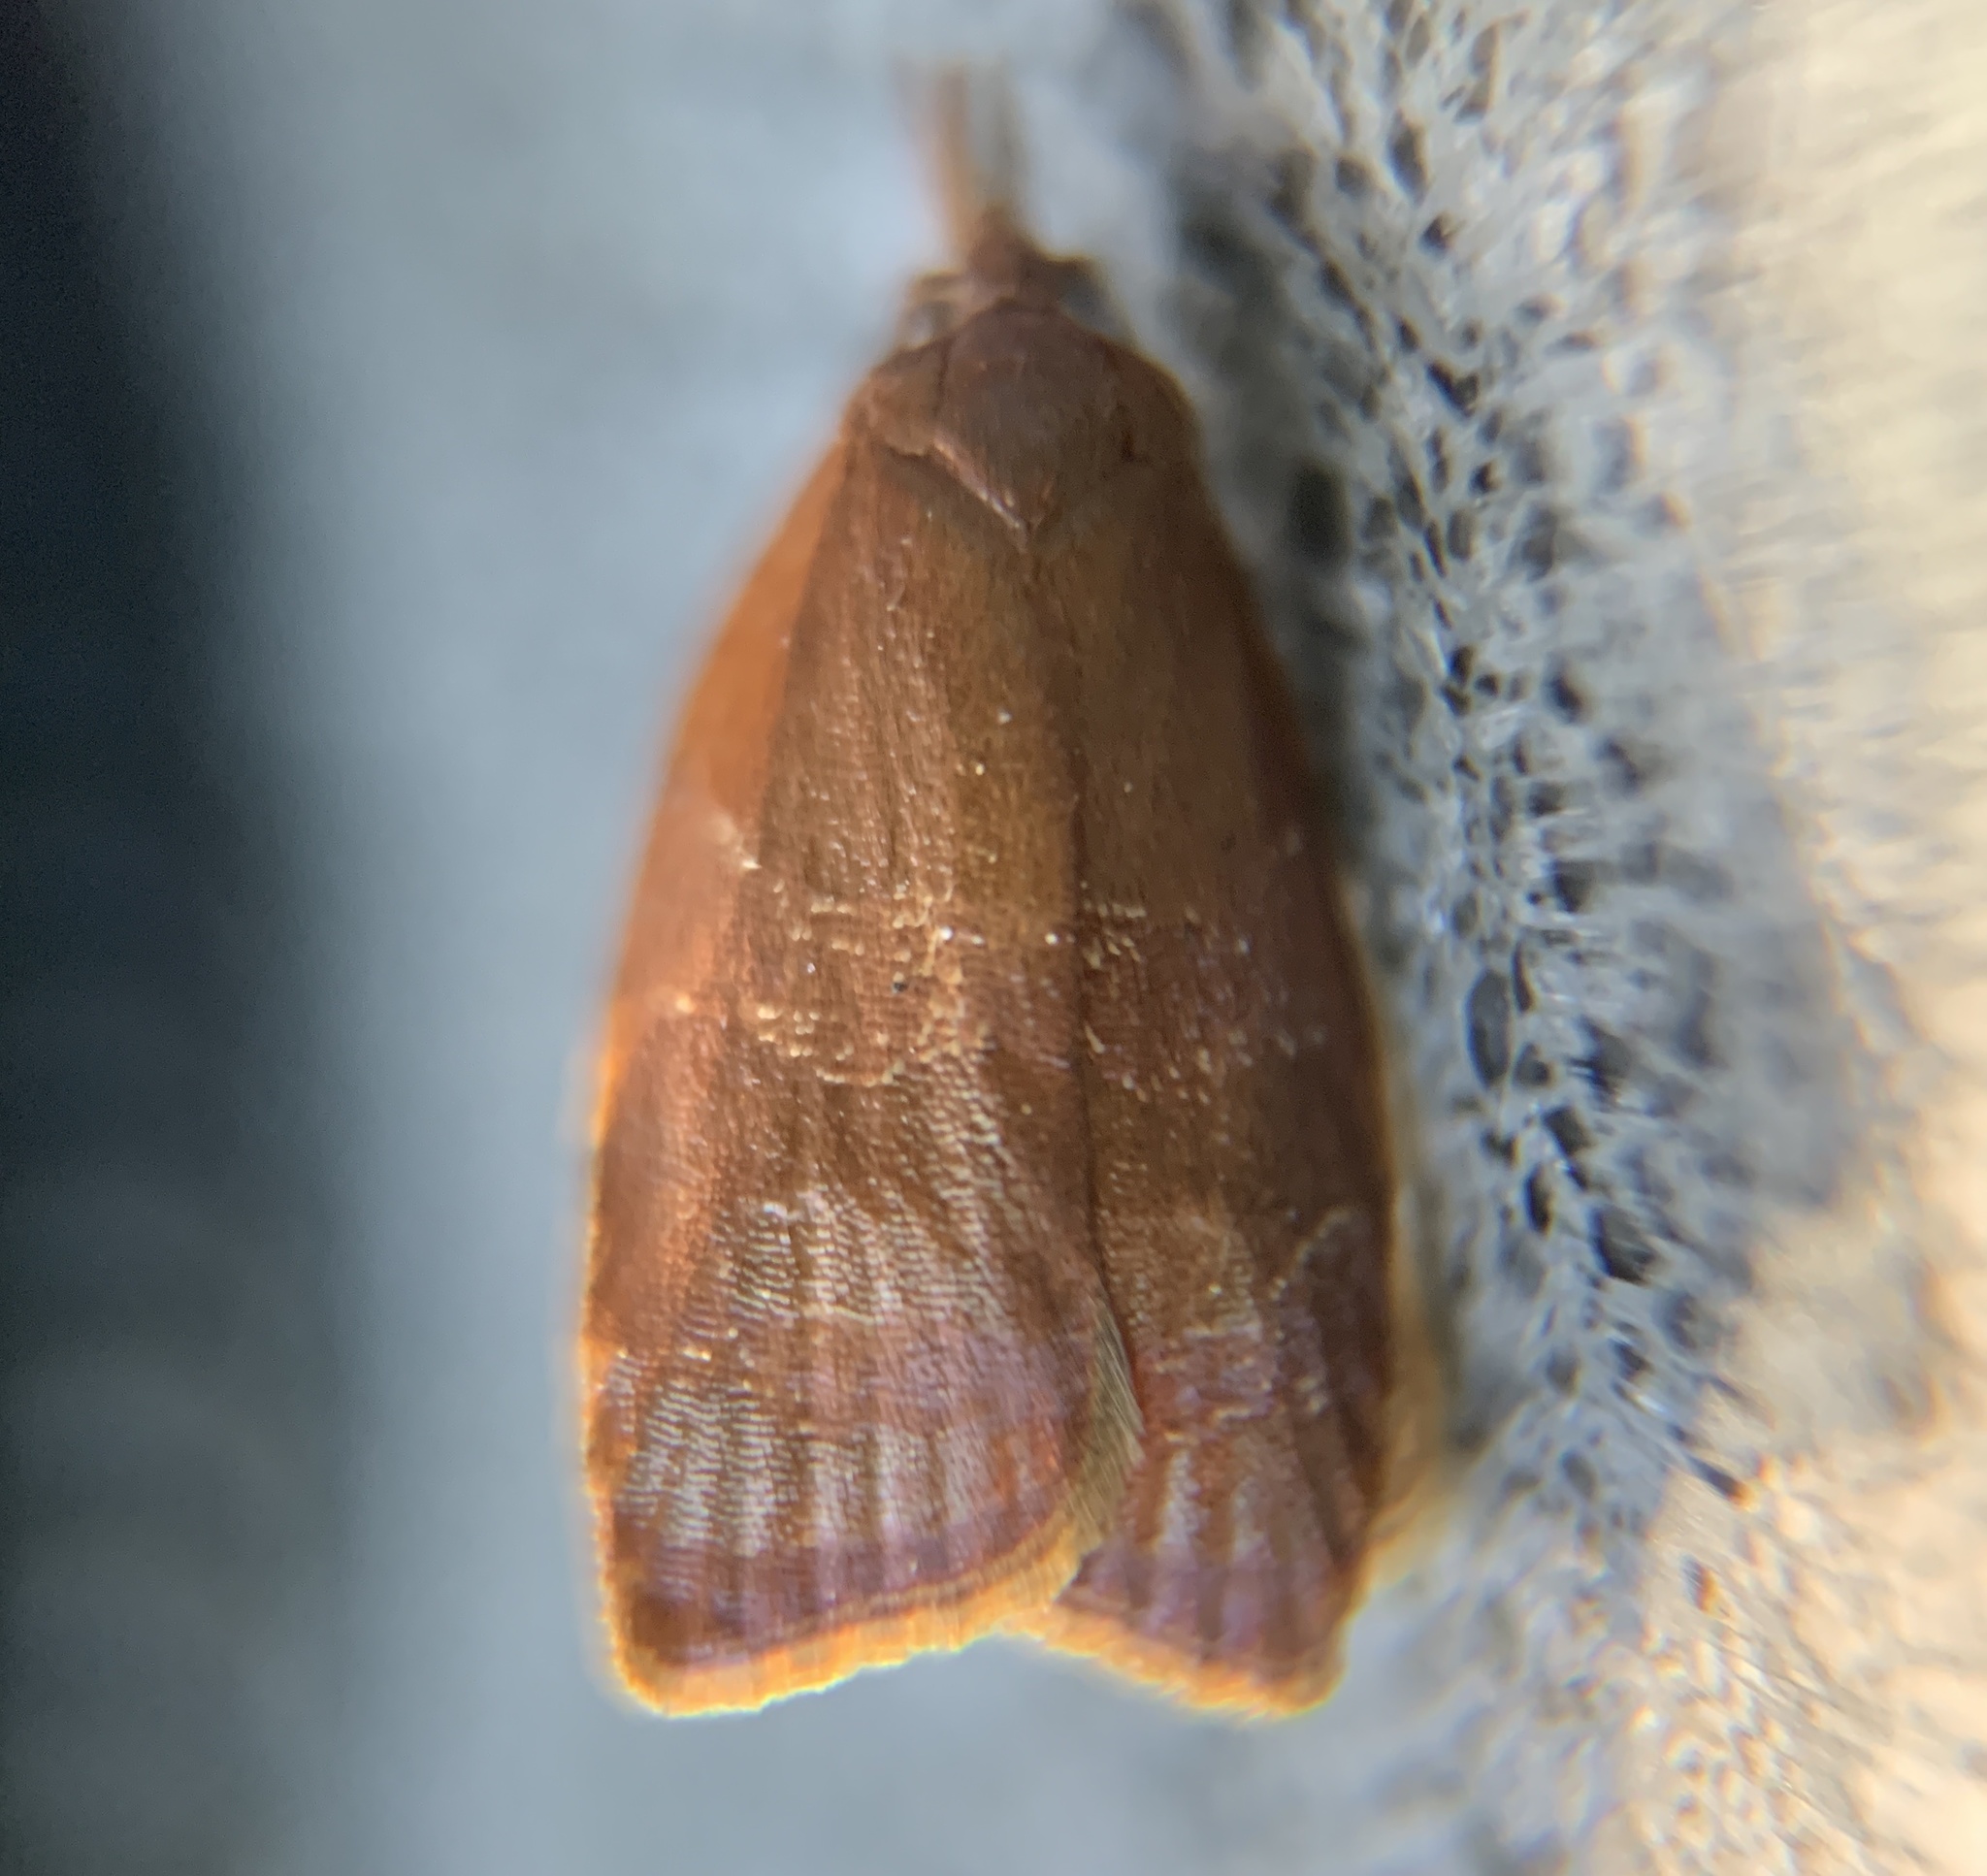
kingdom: Animalia
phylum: Arthropoda
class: Insecta
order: Lepidoptera
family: Tortricidae
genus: Cenopis
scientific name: Cenopis diluticostana
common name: Spring dead-leaf roller moth
